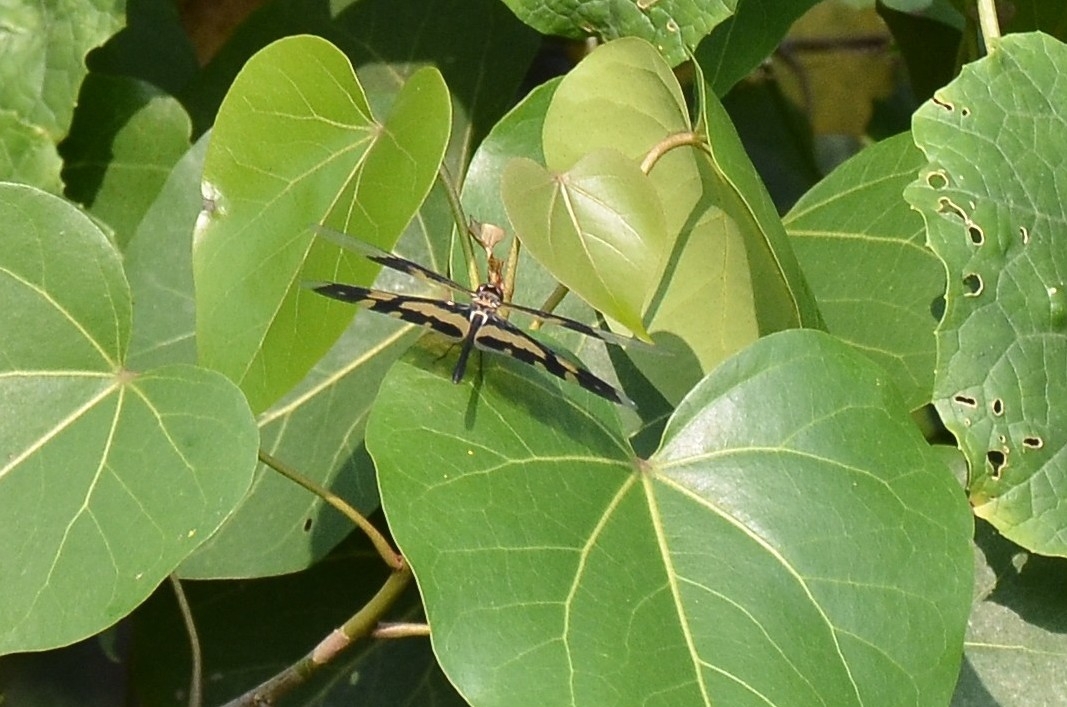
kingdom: Animalia
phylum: Arthropoda
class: Insecta
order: Odonata
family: Libellulidae
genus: Rhyothemis
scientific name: Rhyothemis variegata
